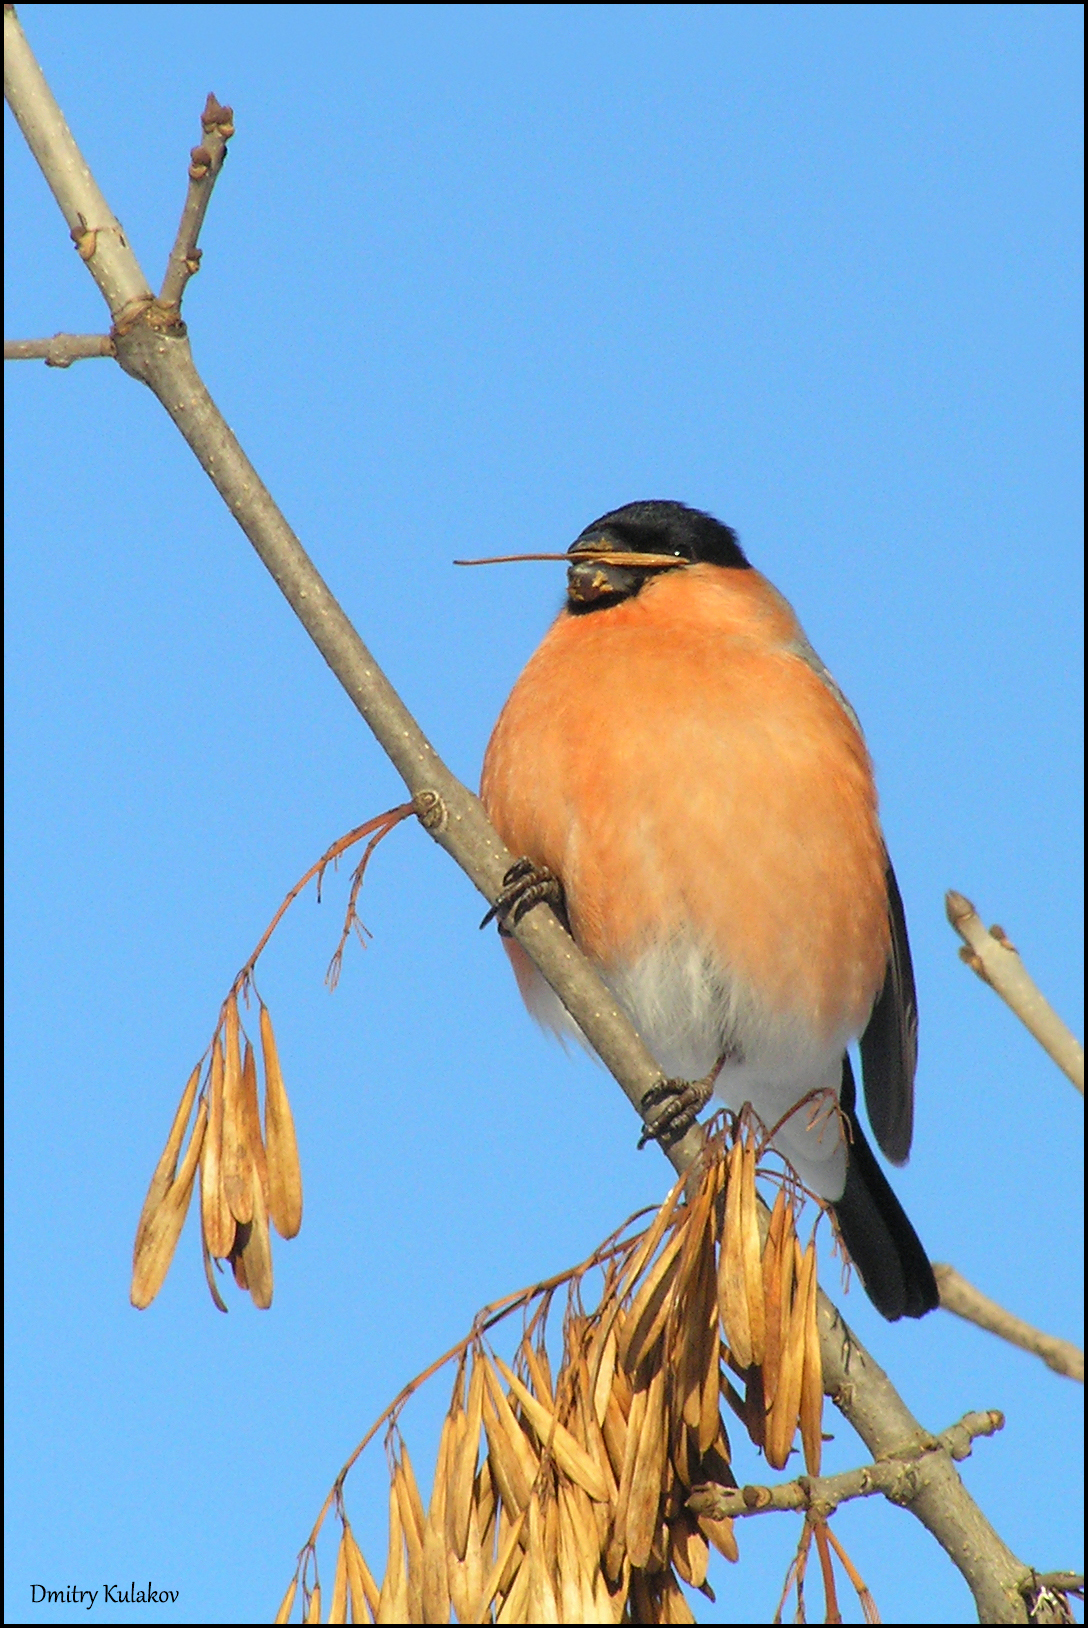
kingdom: Animalia
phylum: Chordata
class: Aves
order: Passeriformes
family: Fringillidae
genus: Pyrrhula
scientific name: Pyrrhula pyrrhula
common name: Eurasian bullfinch
